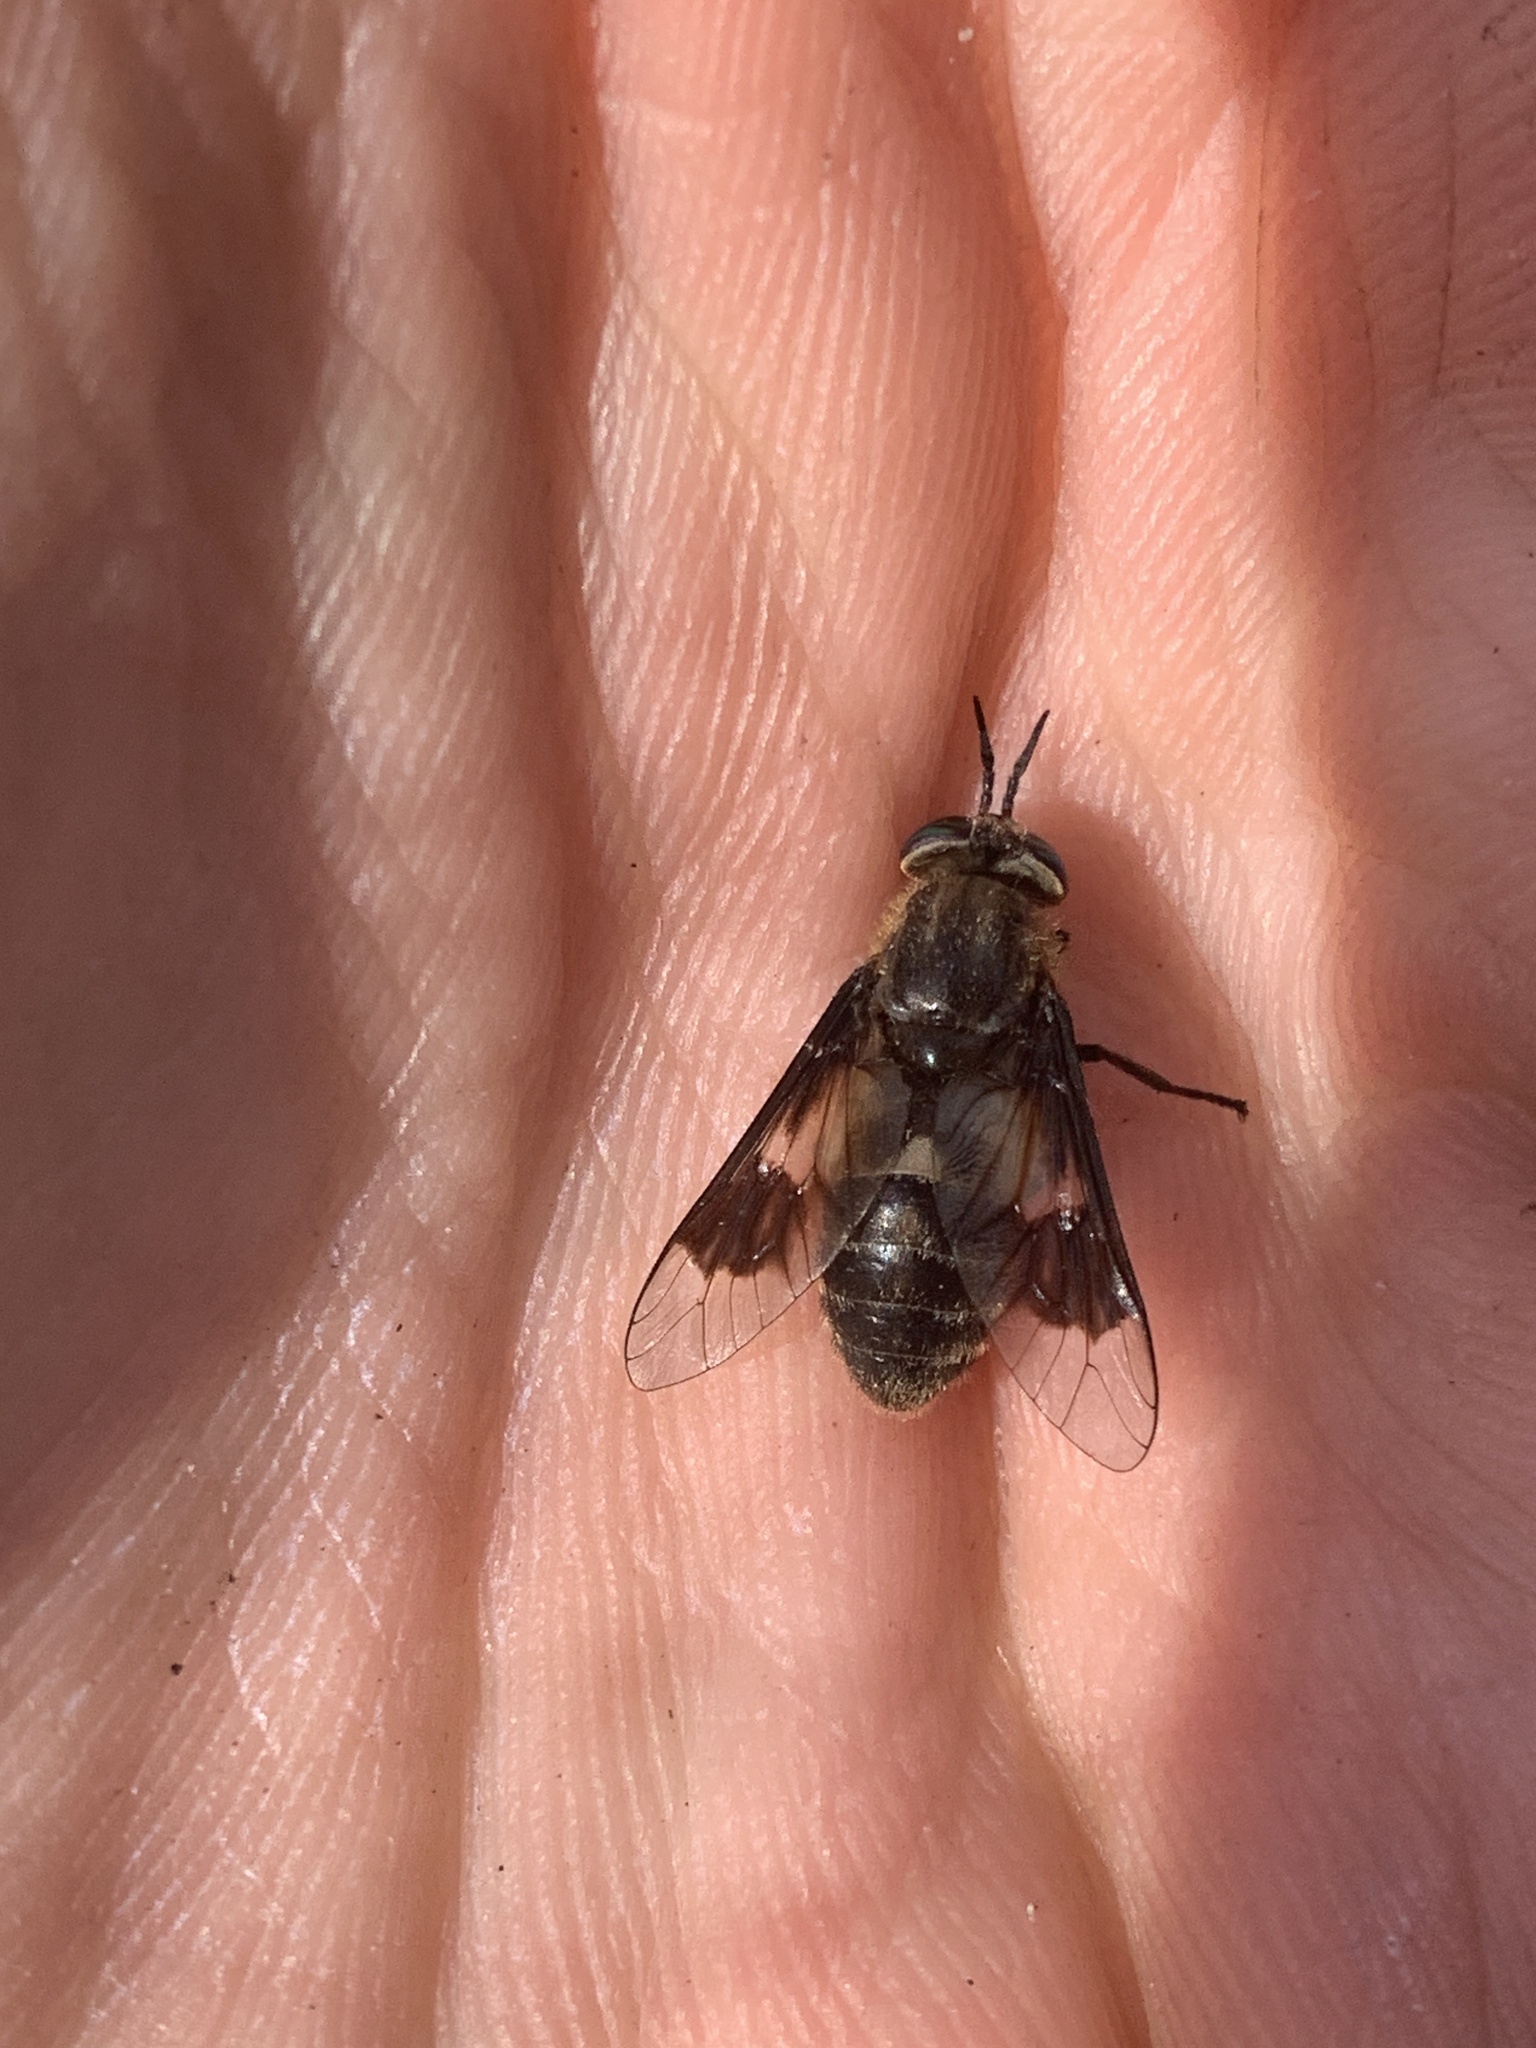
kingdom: Animalia
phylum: Arthropoda
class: Insecta
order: Diptera
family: Tabanidae
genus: Chrysops
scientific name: Chrysops excitans
